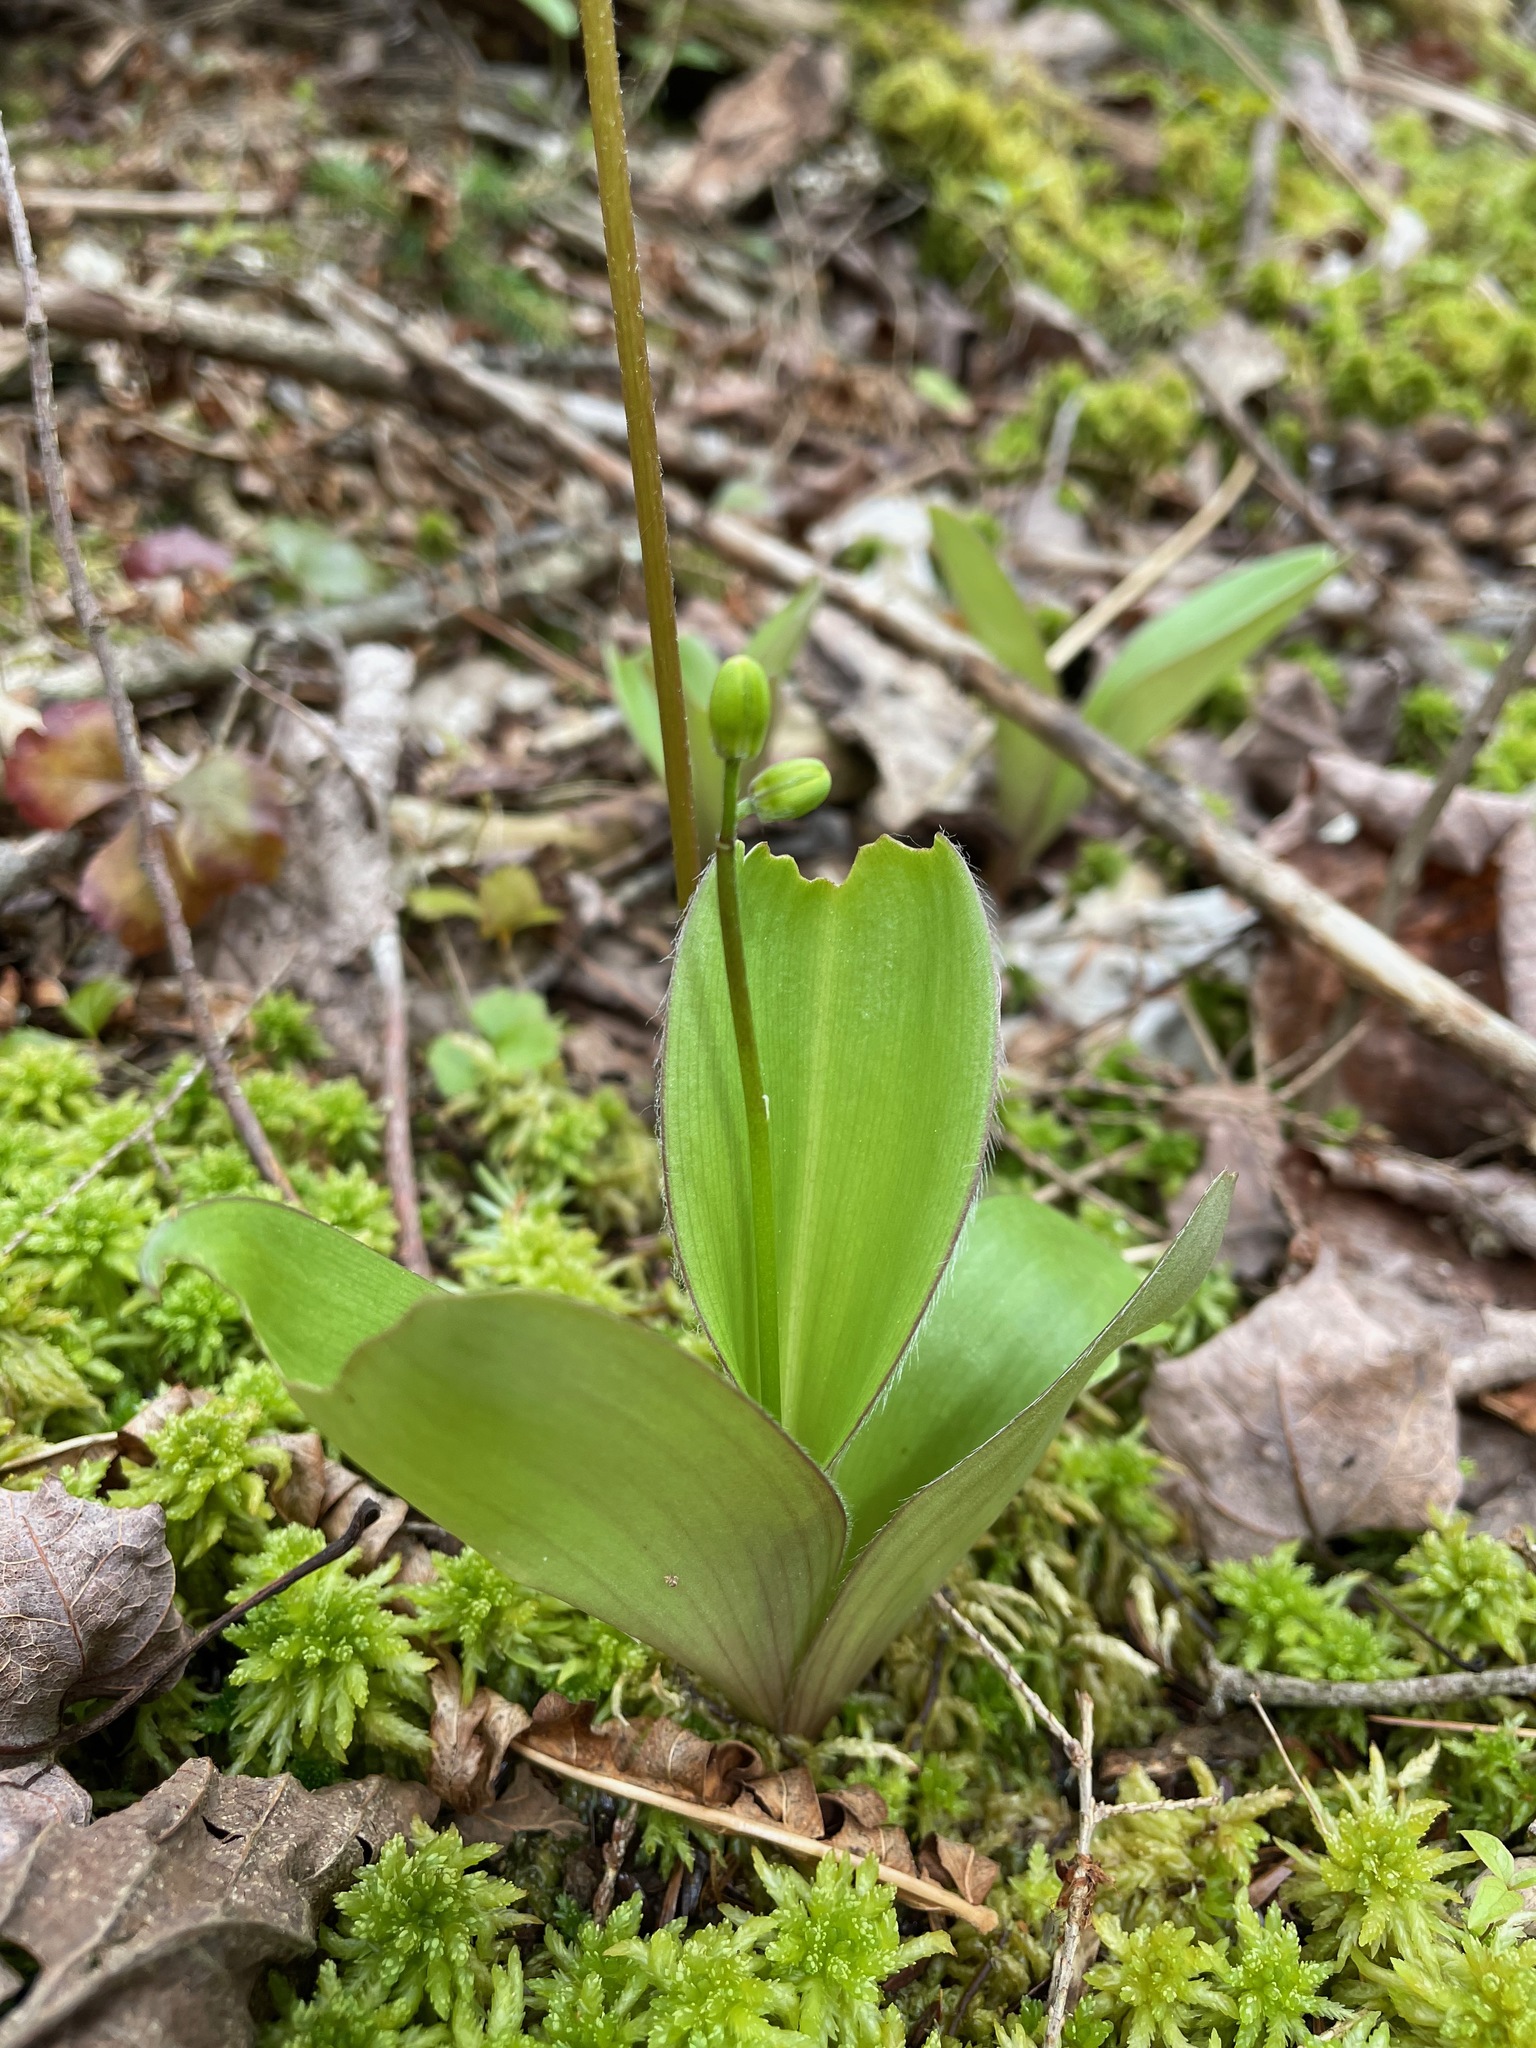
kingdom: Plantae
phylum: Tracheophyta
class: Liliopsida
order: Liliales
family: Liliaceae
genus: Clintonia
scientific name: Clintonia borealis
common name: Yellow clintonia
